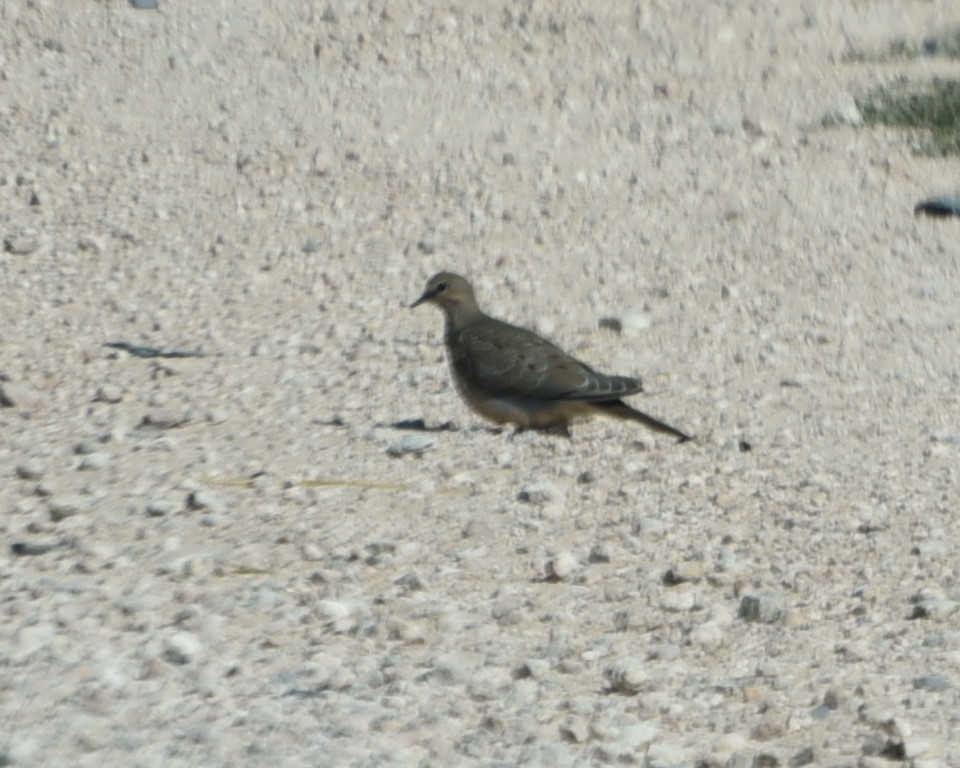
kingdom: Animalia
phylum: Chordata
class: Aves
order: Columbiformes
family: Columbidae
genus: Zenaida
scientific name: Zenaida macroura
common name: Mourning dove
